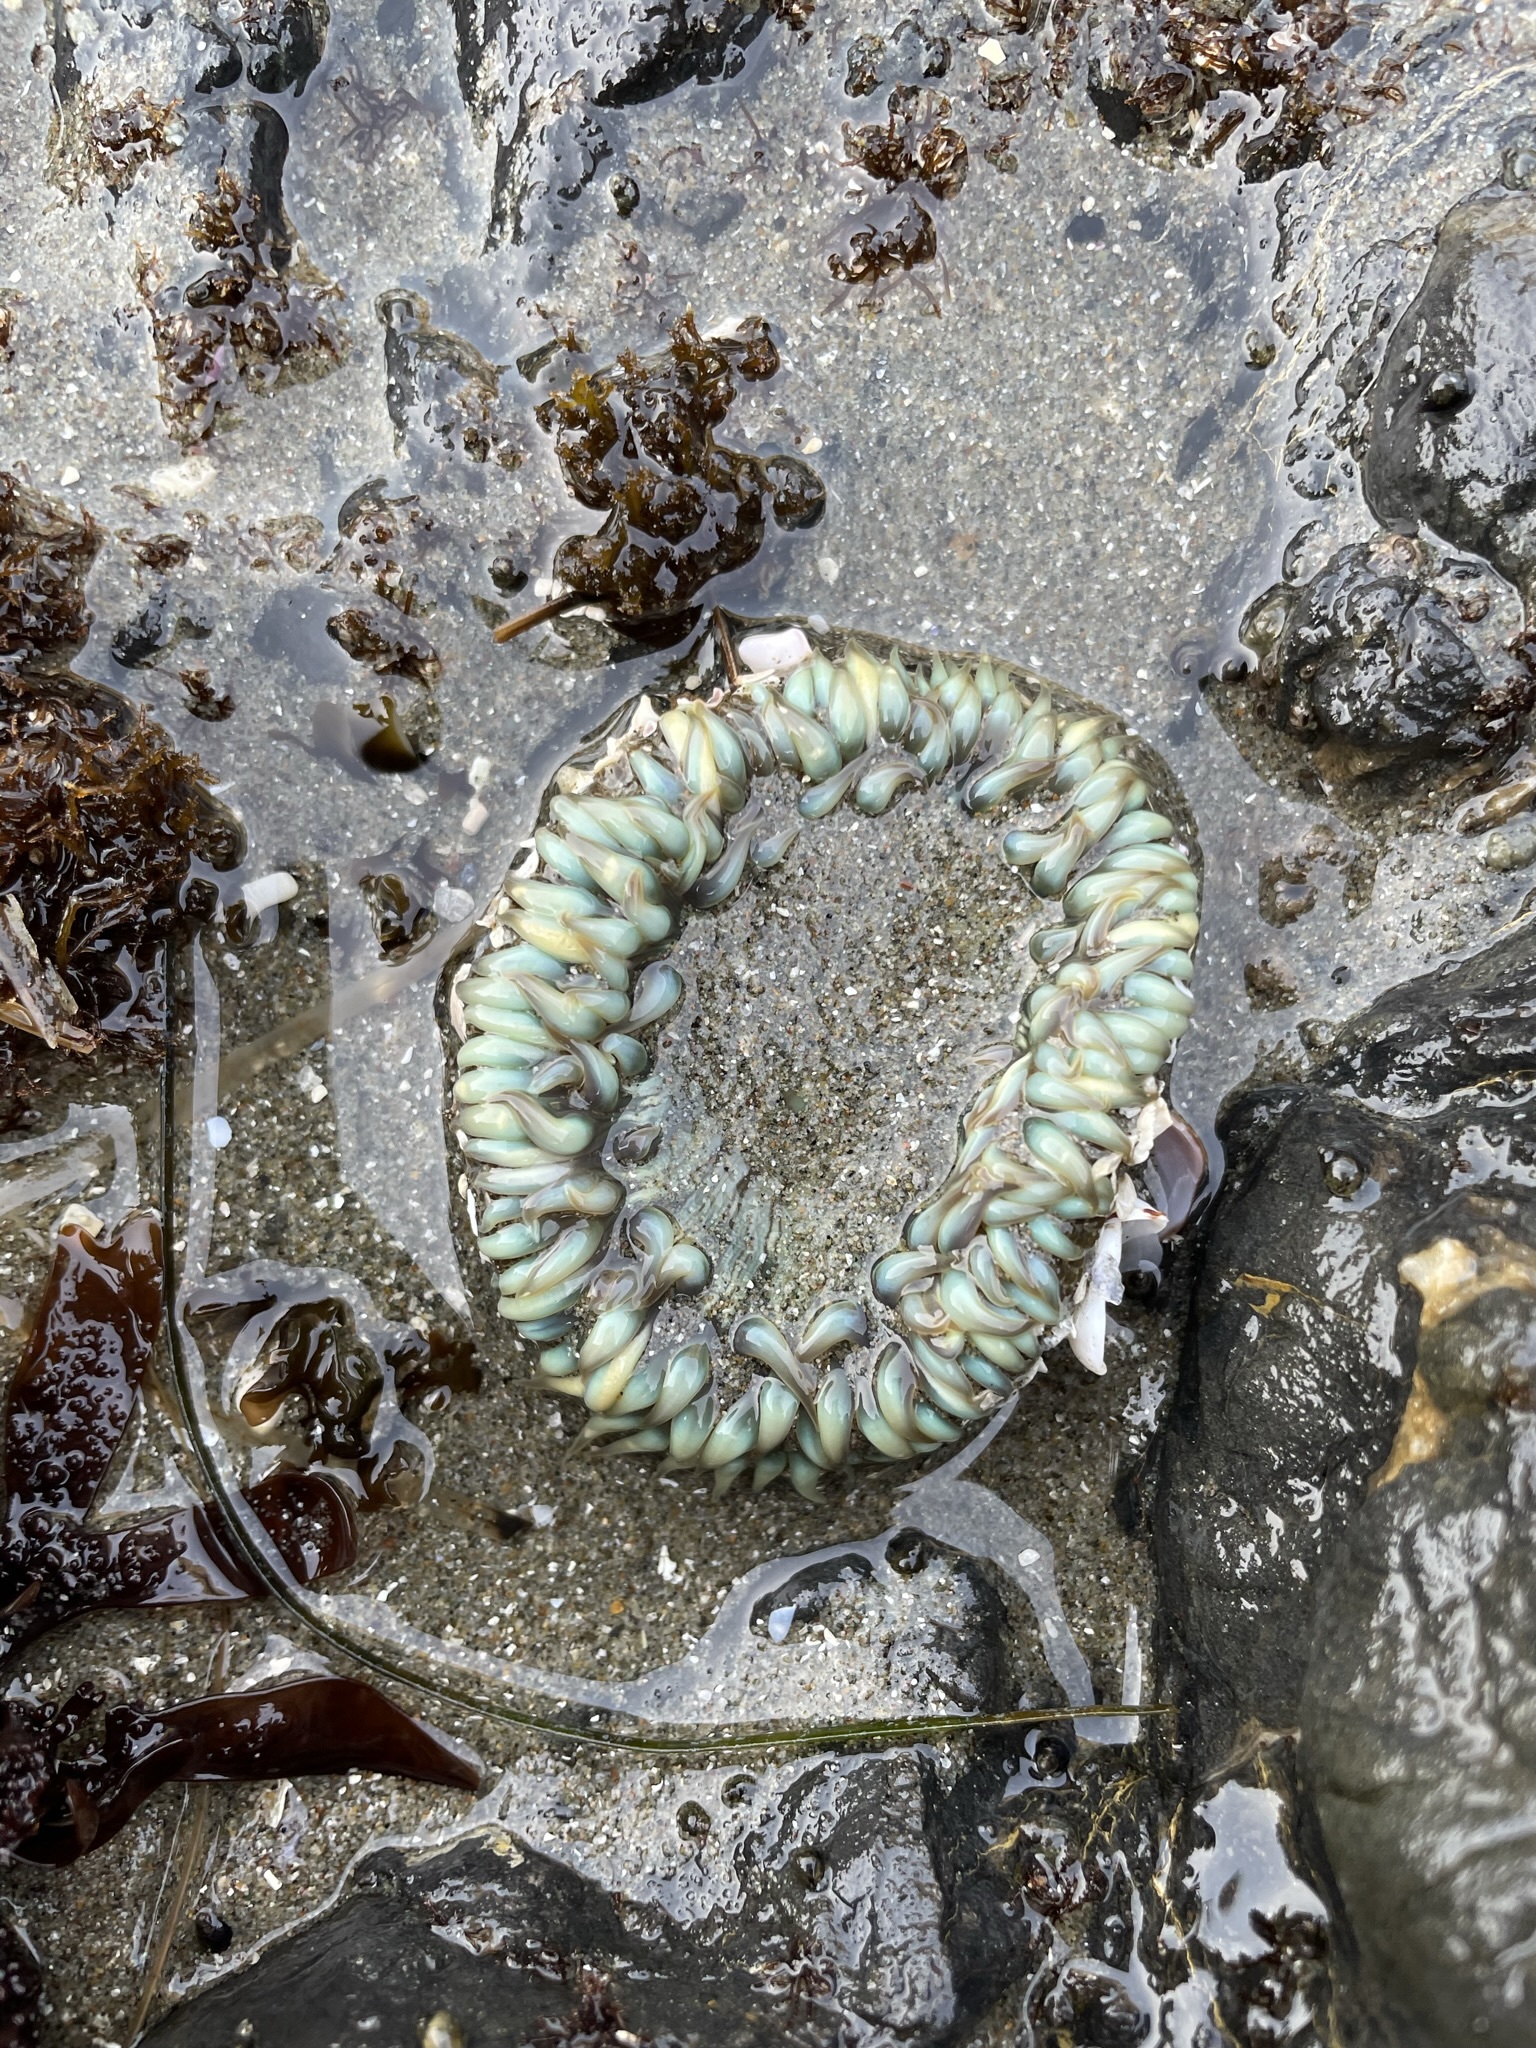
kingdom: Animalia
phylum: Cnidaria
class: Anthozoa
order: Actiniaria
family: Actiniidae
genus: Anthopleura
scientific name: Anthopleura sola
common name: Sun anemone
